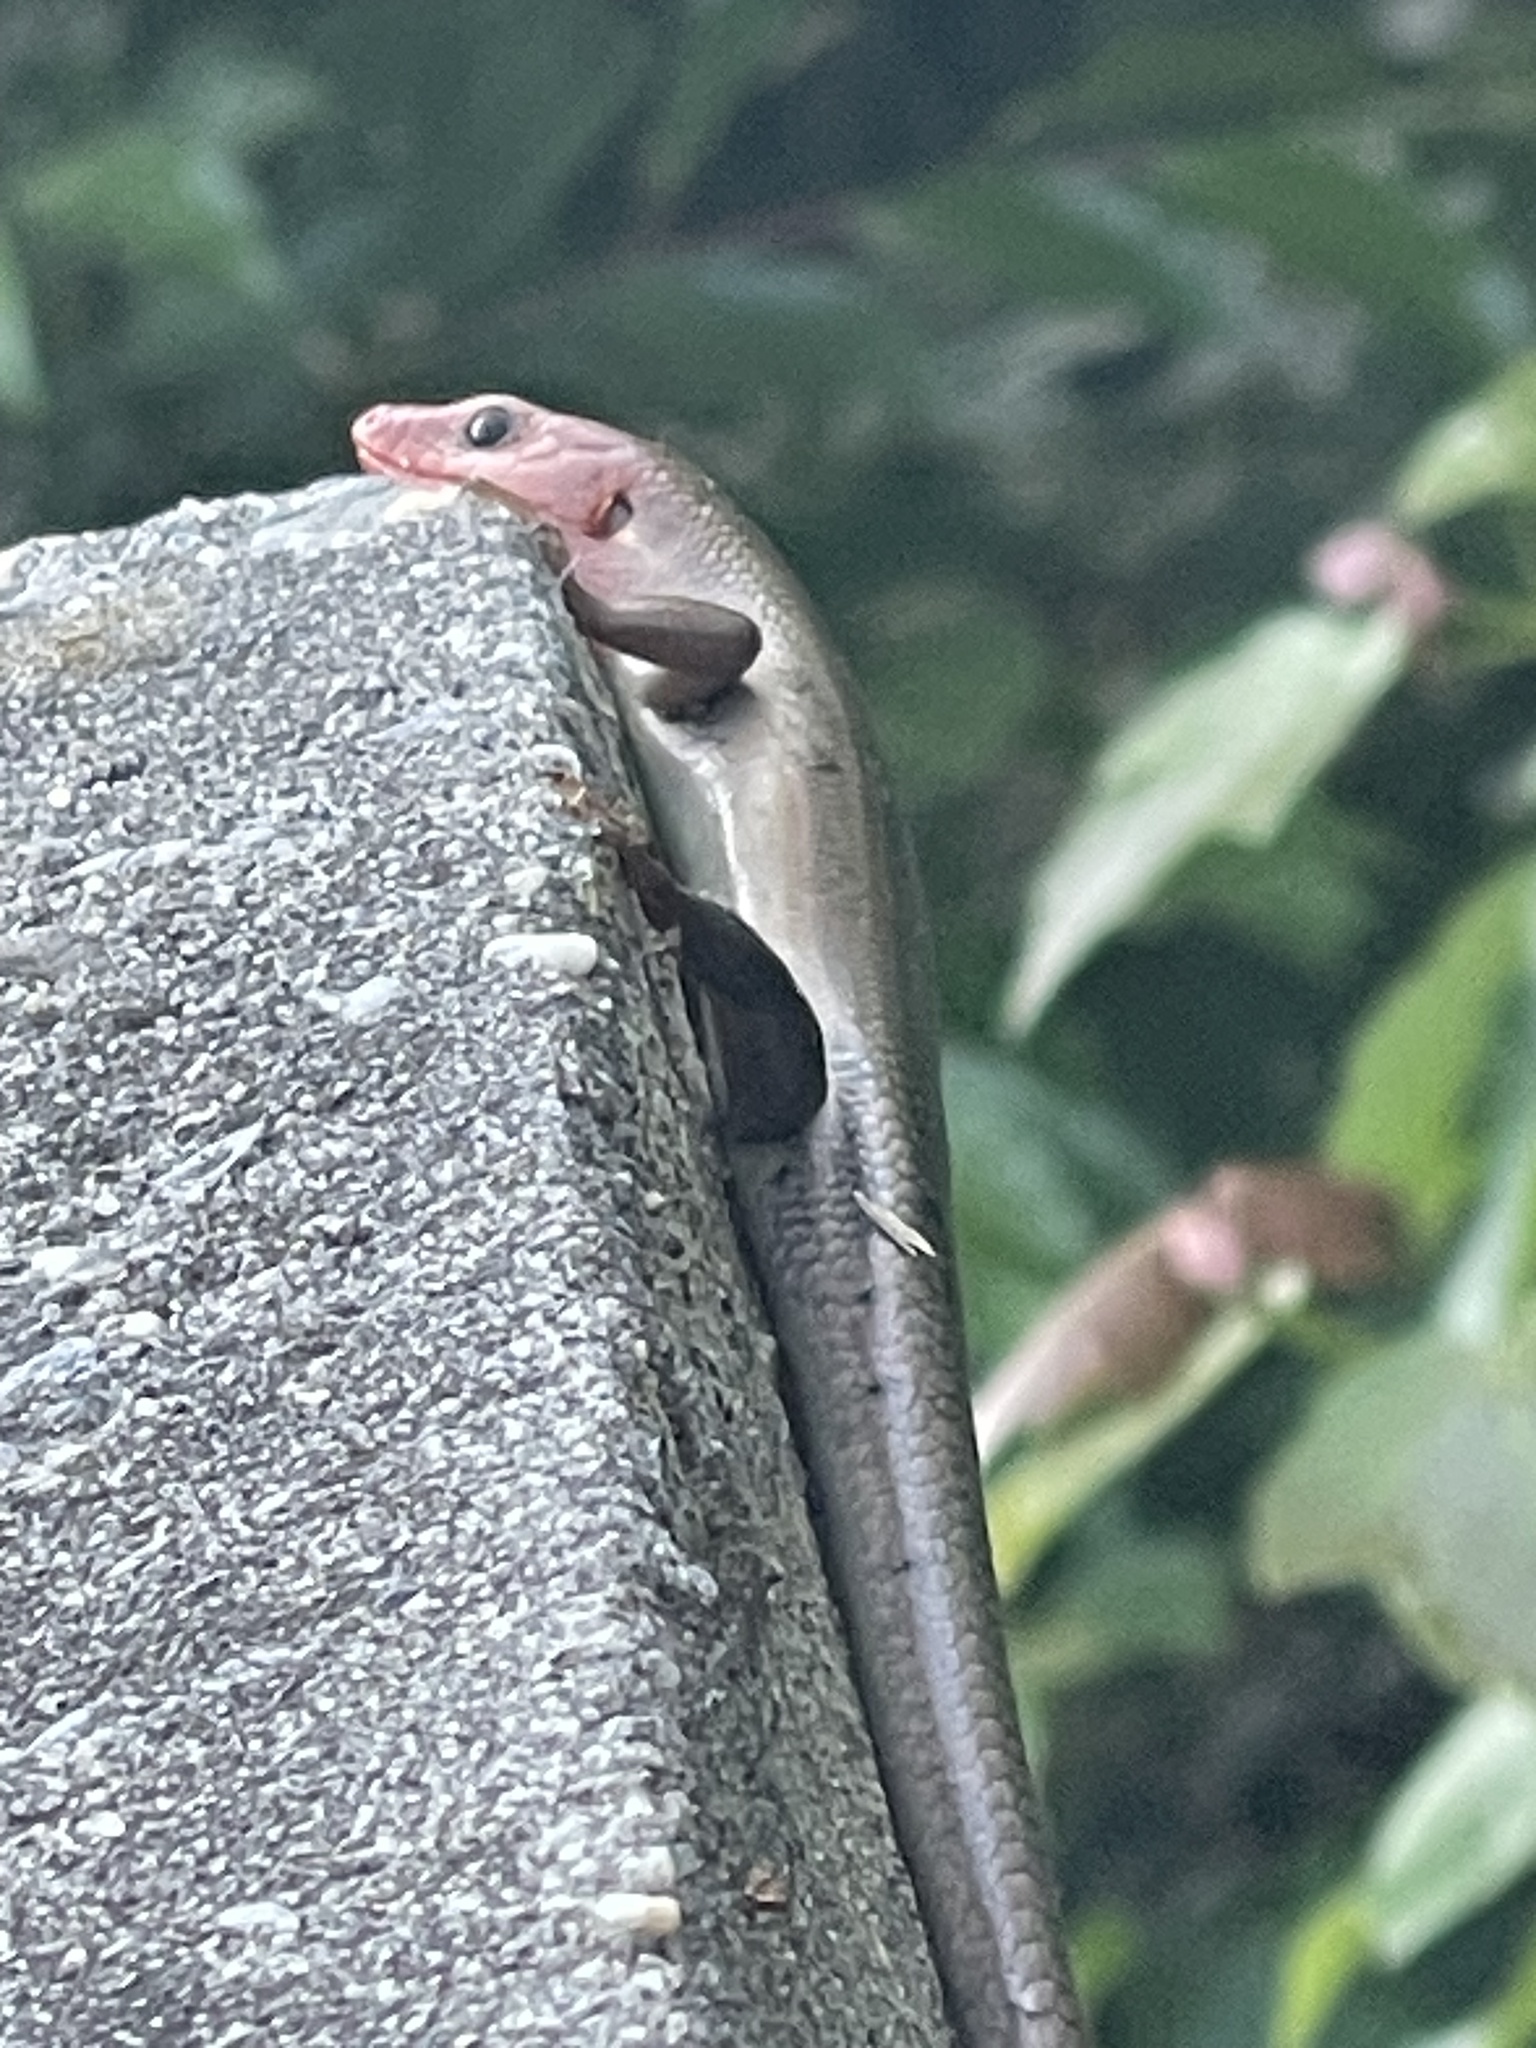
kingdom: Animalia
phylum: Chordata
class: Squamata
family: Scincidae
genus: Plestiodon
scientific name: Plestiodon fasciatus
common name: Five-lined skink
